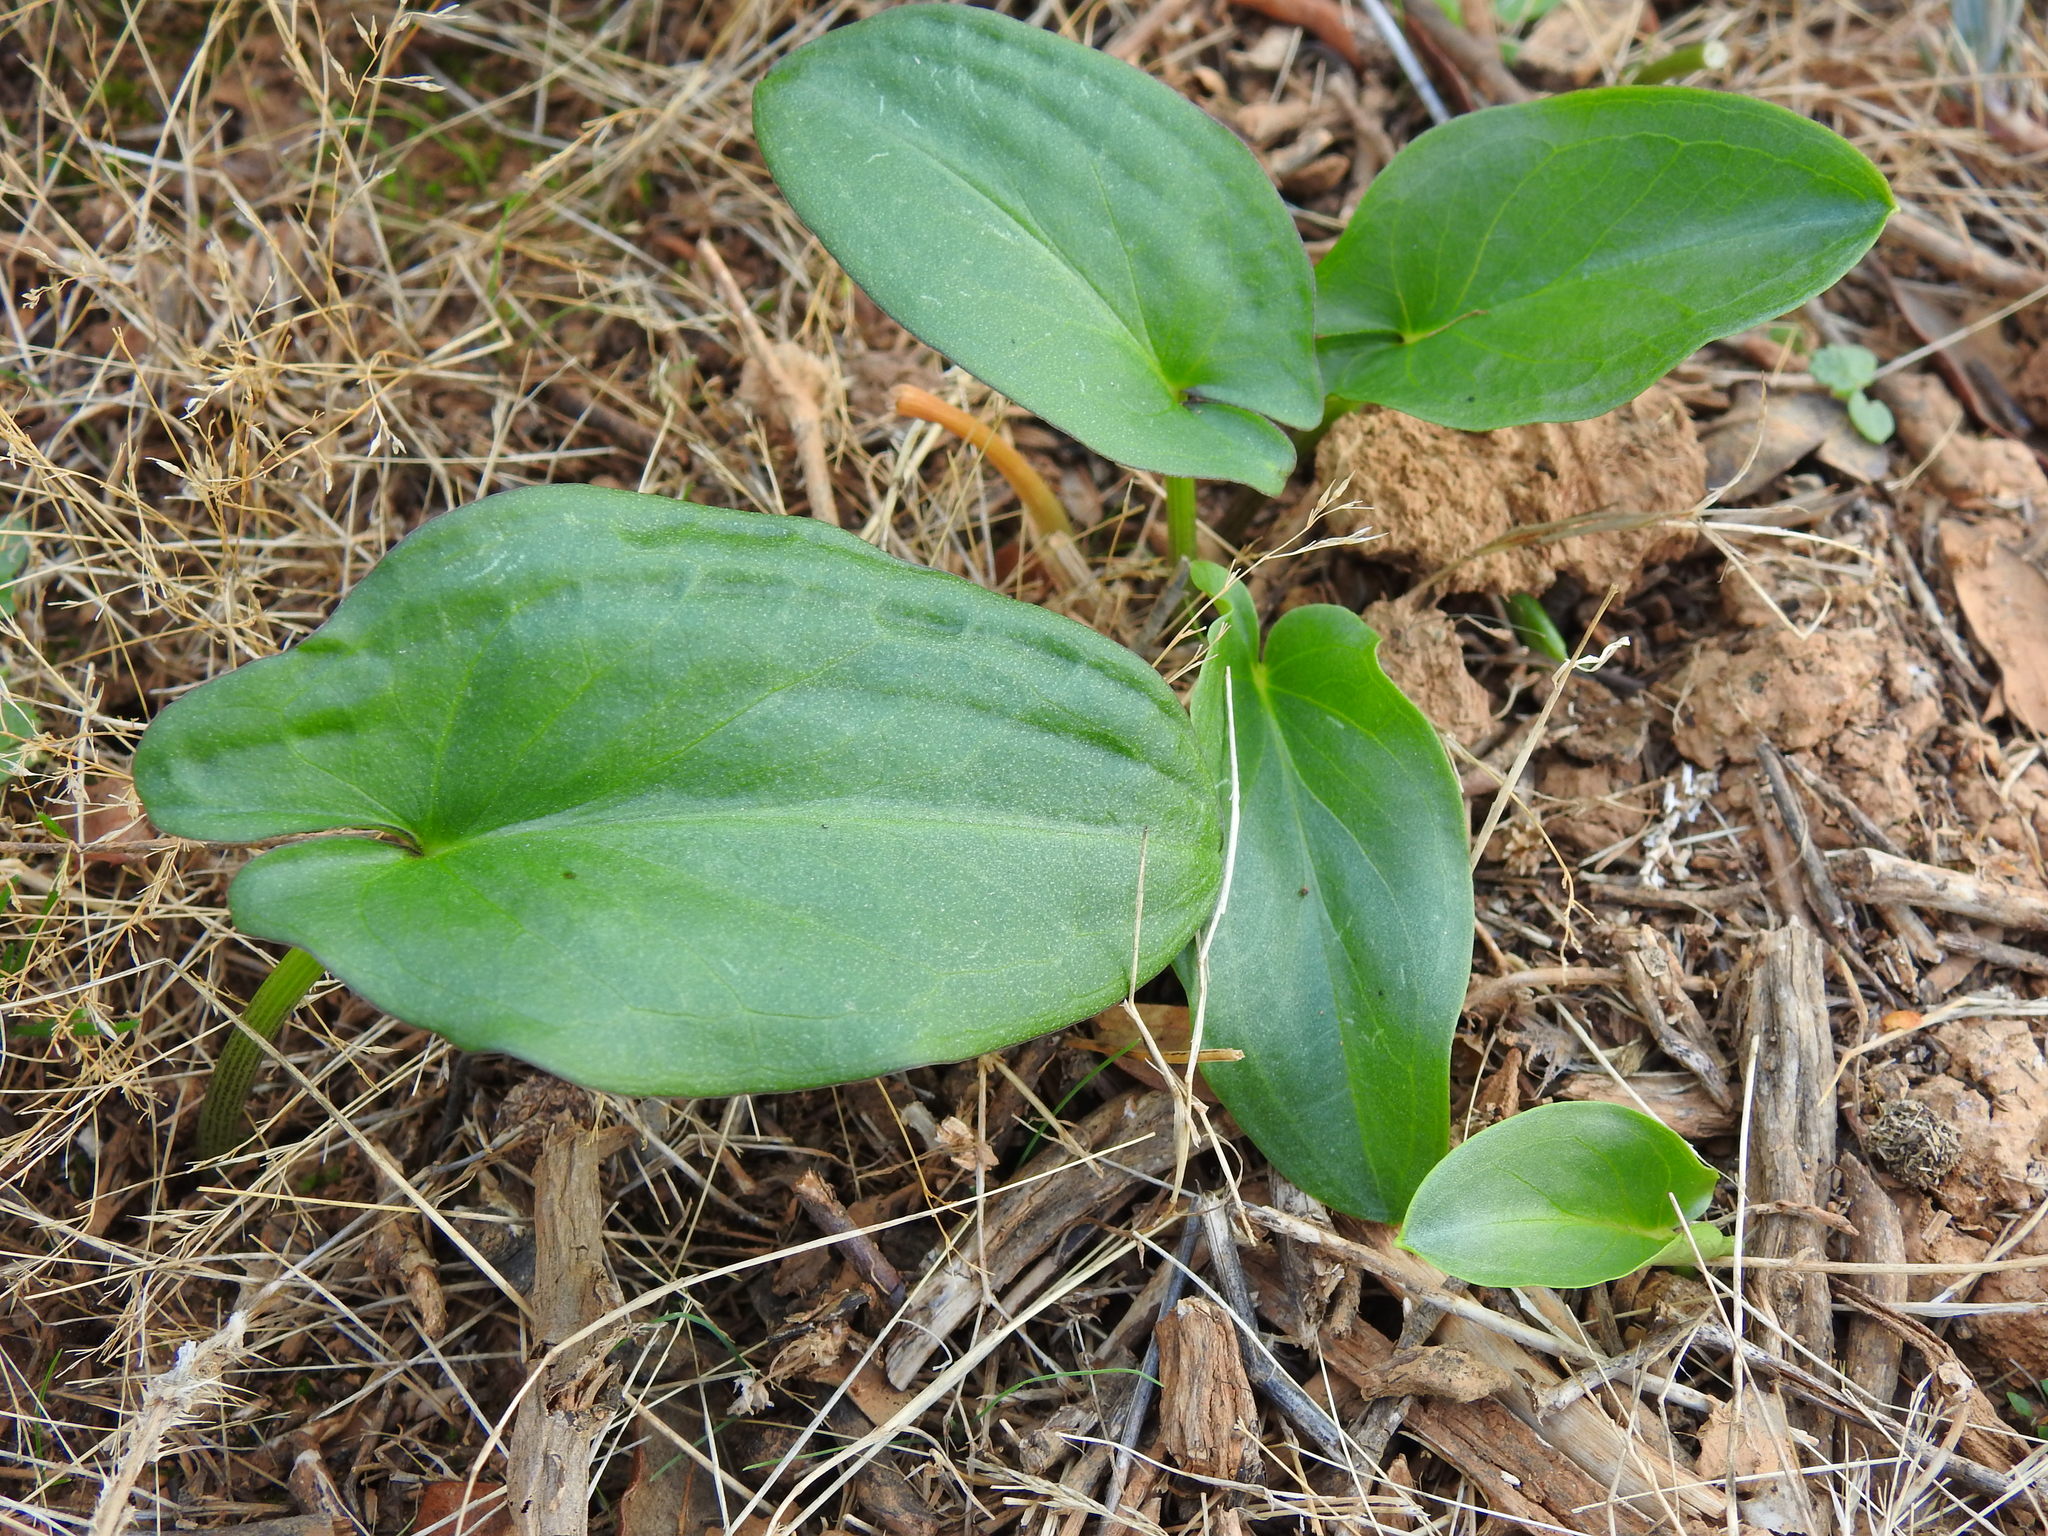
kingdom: Plantae
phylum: Tracheophyta
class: Liliopsida
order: Alismatales
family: Araceae
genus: Arisarum
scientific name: Arisarum simorrhinum
